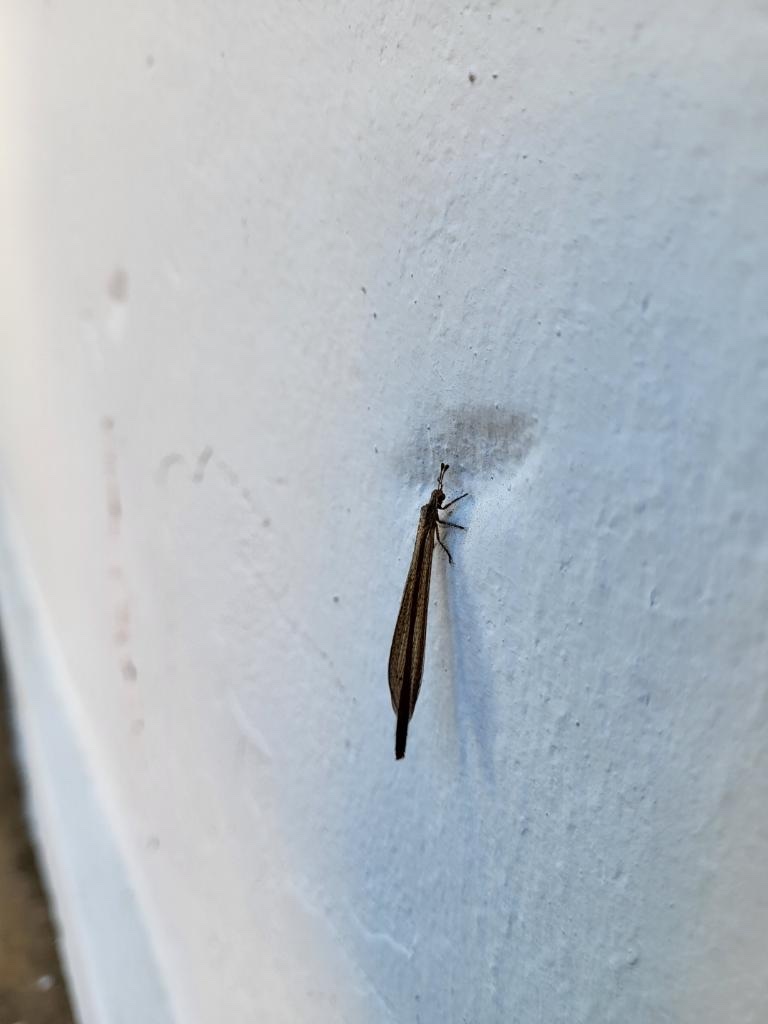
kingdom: Animalia
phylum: Arthropoda
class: Insecta
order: Neuroptera
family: Myrmeleontidae
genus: Ameromyia
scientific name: Ameromyia pubiventris
